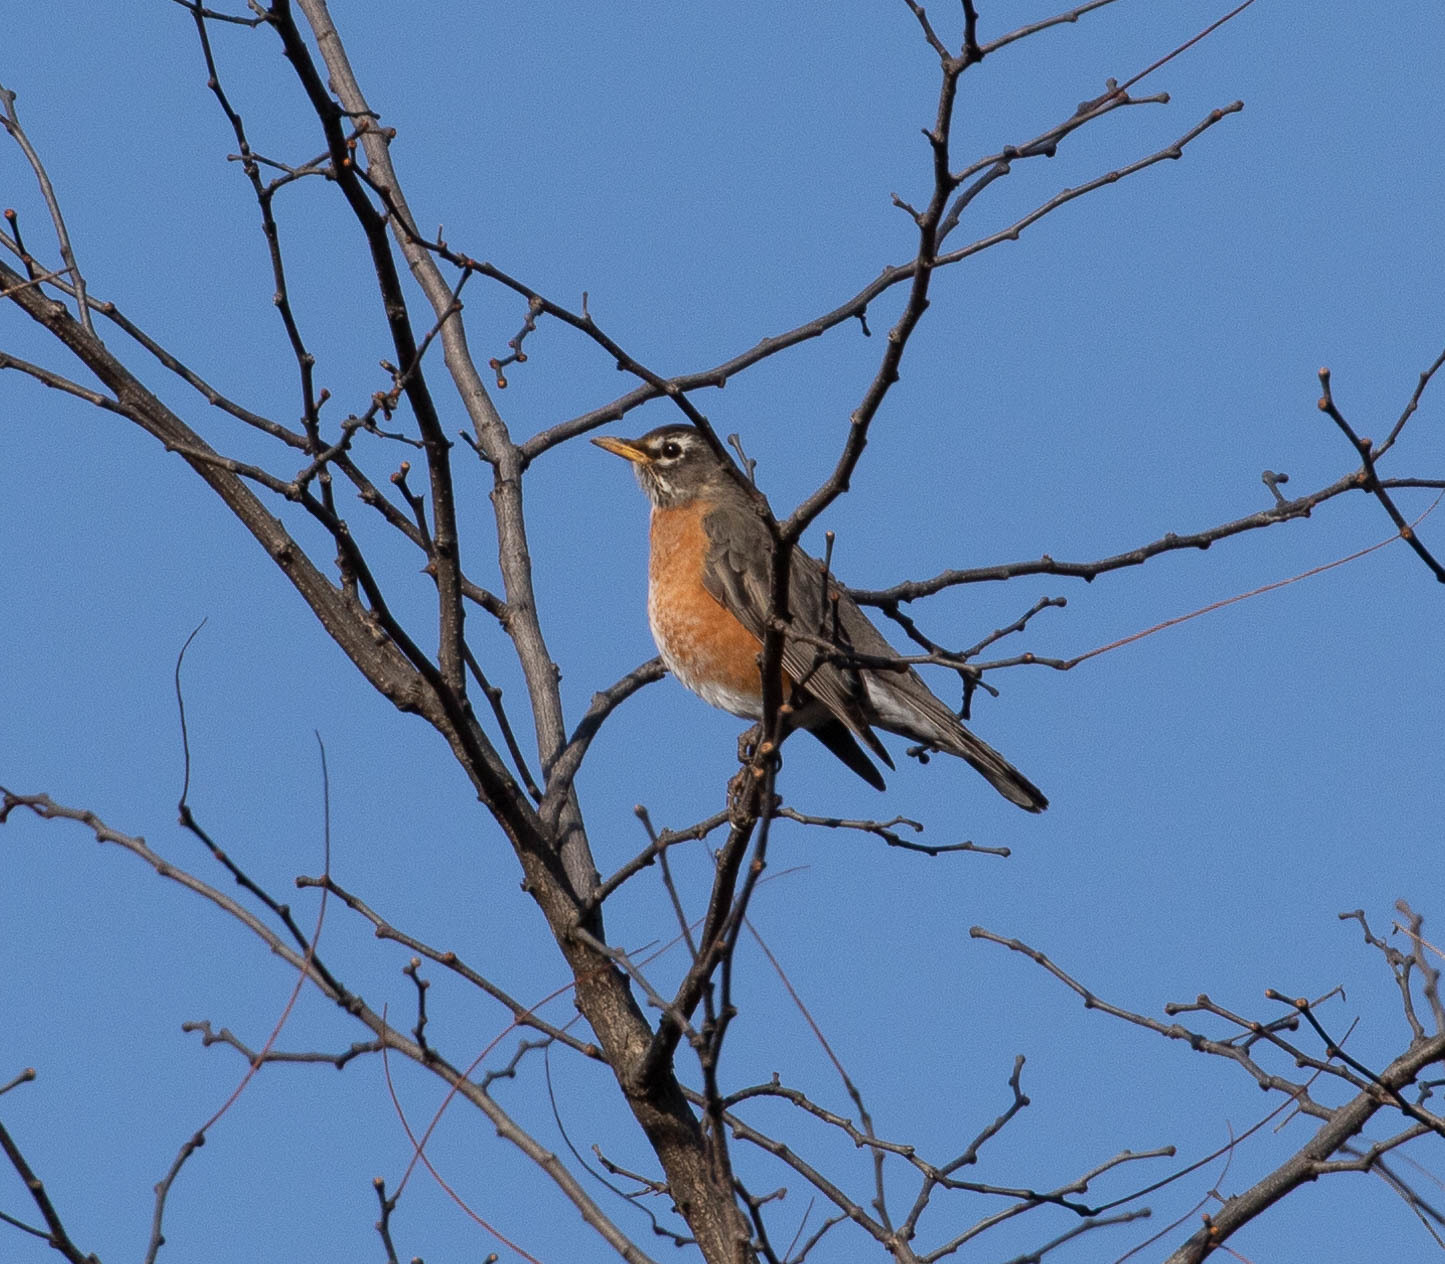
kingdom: Animalia
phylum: Chordata
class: Aves
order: Passeriformes
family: Turdidae
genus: Turdus
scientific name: Turdus migratorius
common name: American robin
